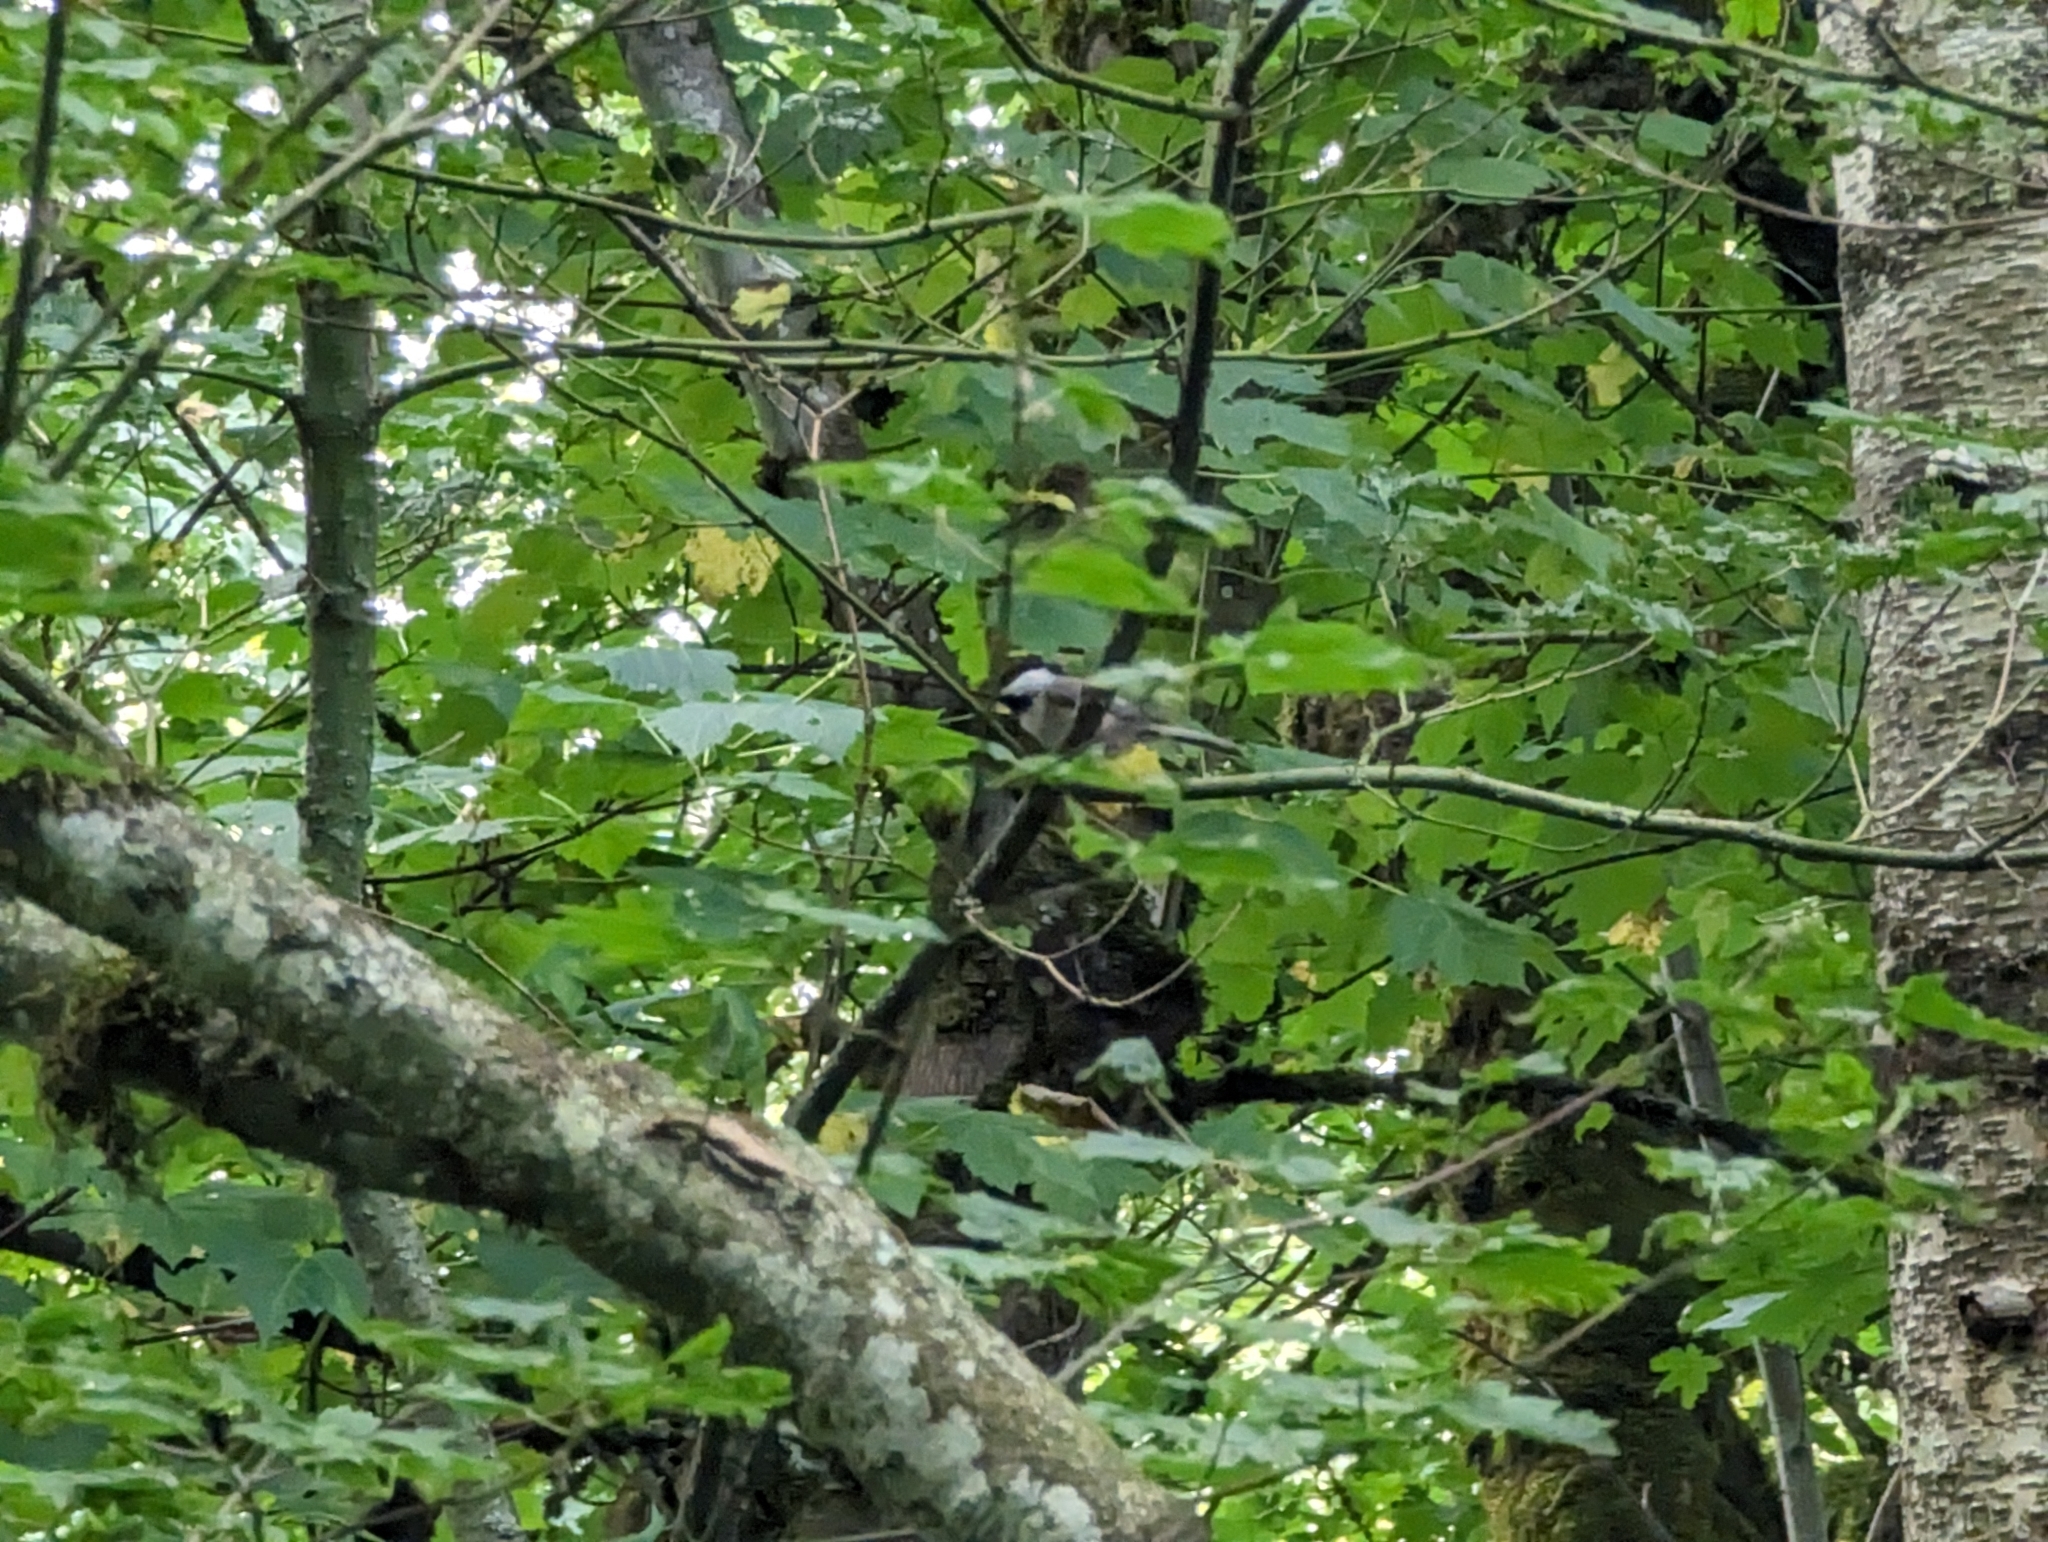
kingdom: Animalia
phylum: Chordata
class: Aves
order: Passeriformes
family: Paridae
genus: Poecile
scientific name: Poecile atricapillus
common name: Black-capped chickadee
